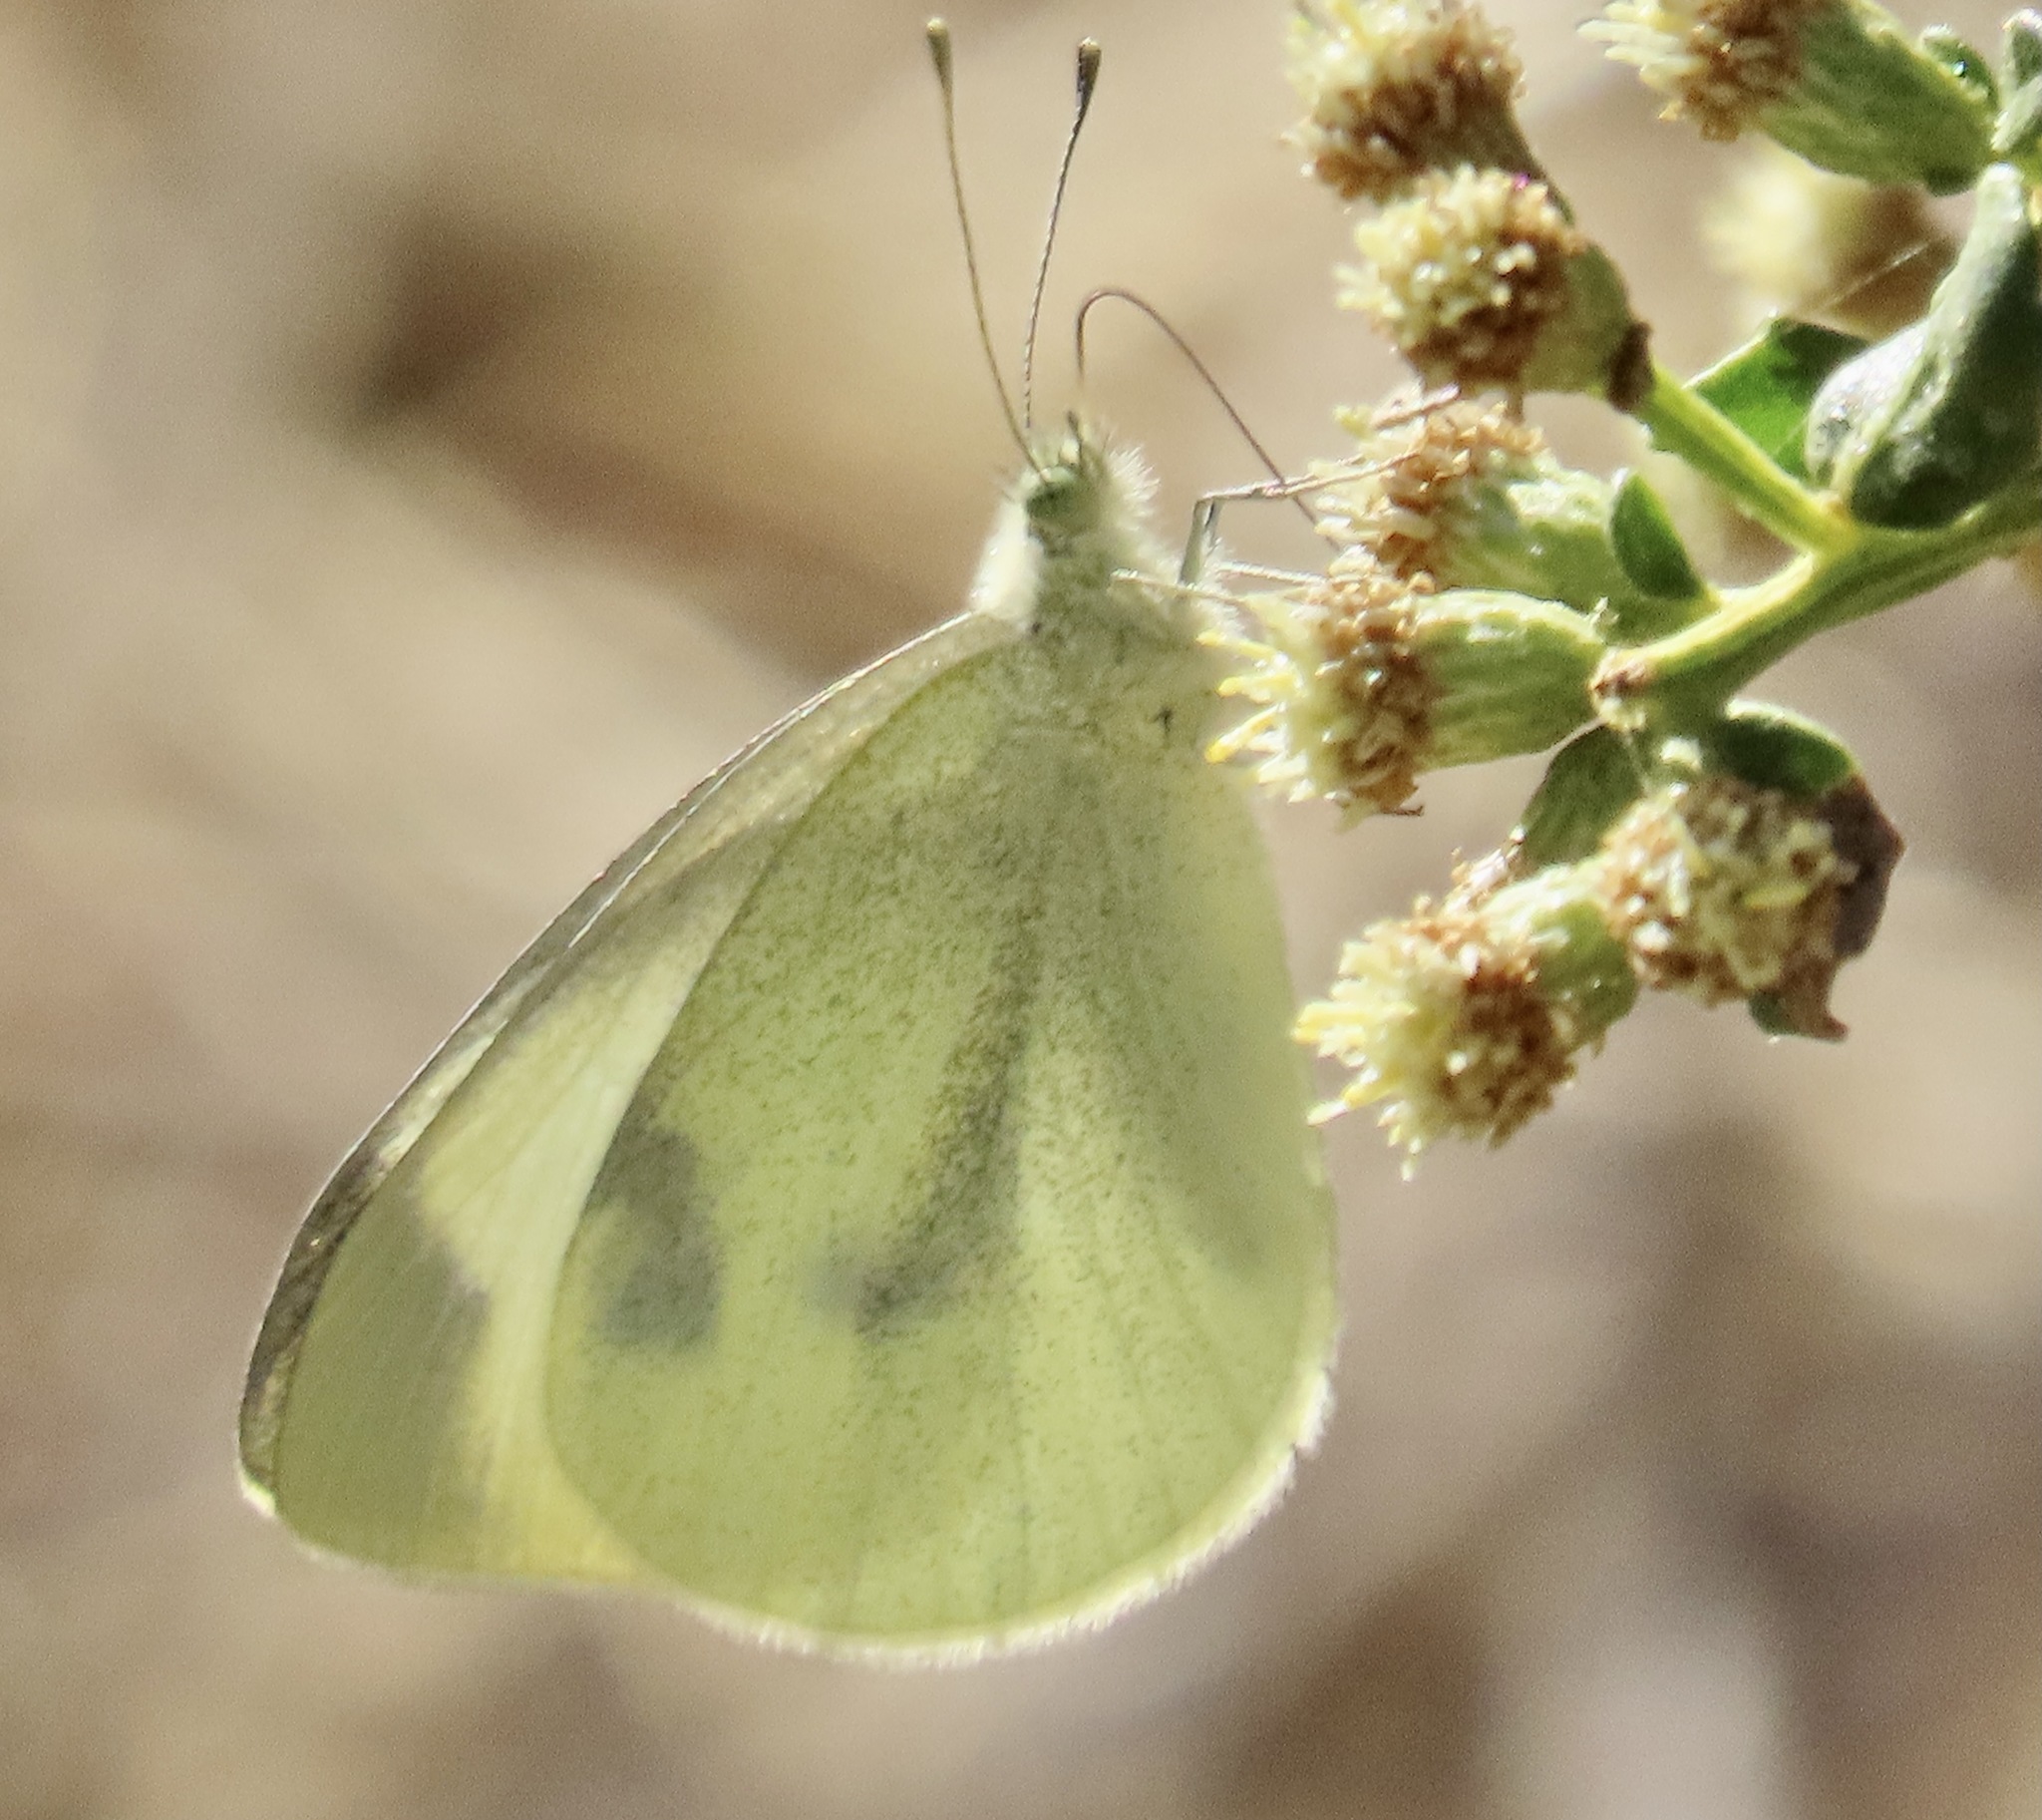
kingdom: Animalia
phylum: Arthropoda
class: Insecta
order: Lepidoptera
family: Pieridae
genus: Pieris
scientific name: Pieris rapae
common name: Small white
